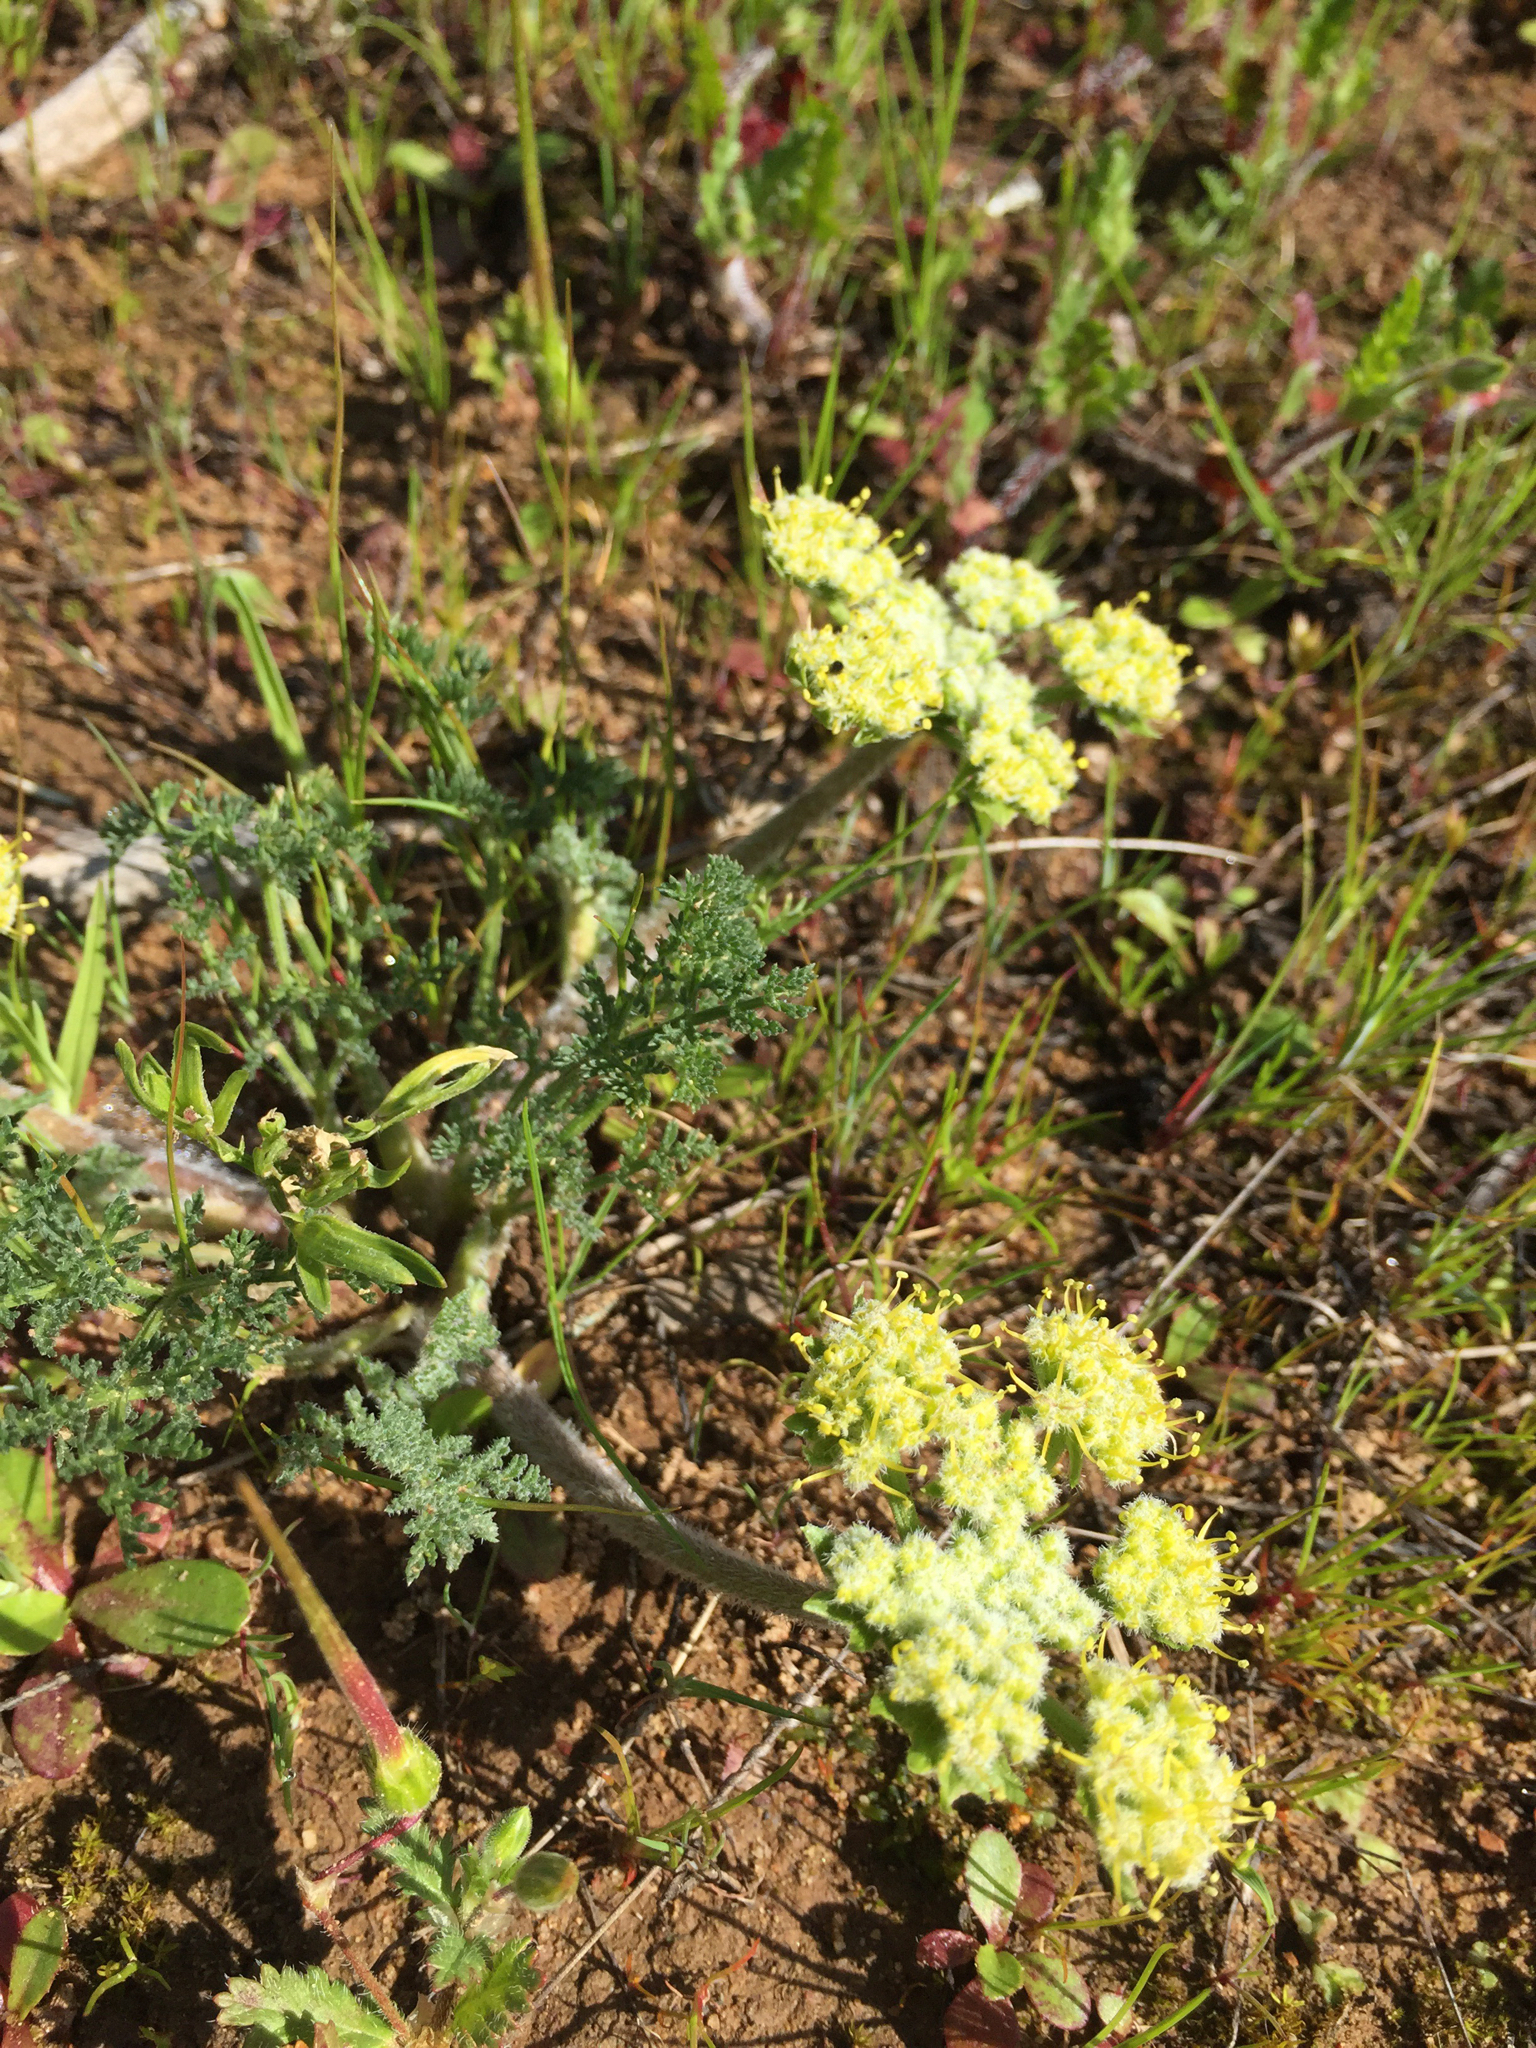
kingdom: Plantae
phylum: Tracheophyta
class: Magnoliopsida
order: Apiales
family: Apiaceae
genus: Lomatium
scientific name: Lomatium dasycarpum
